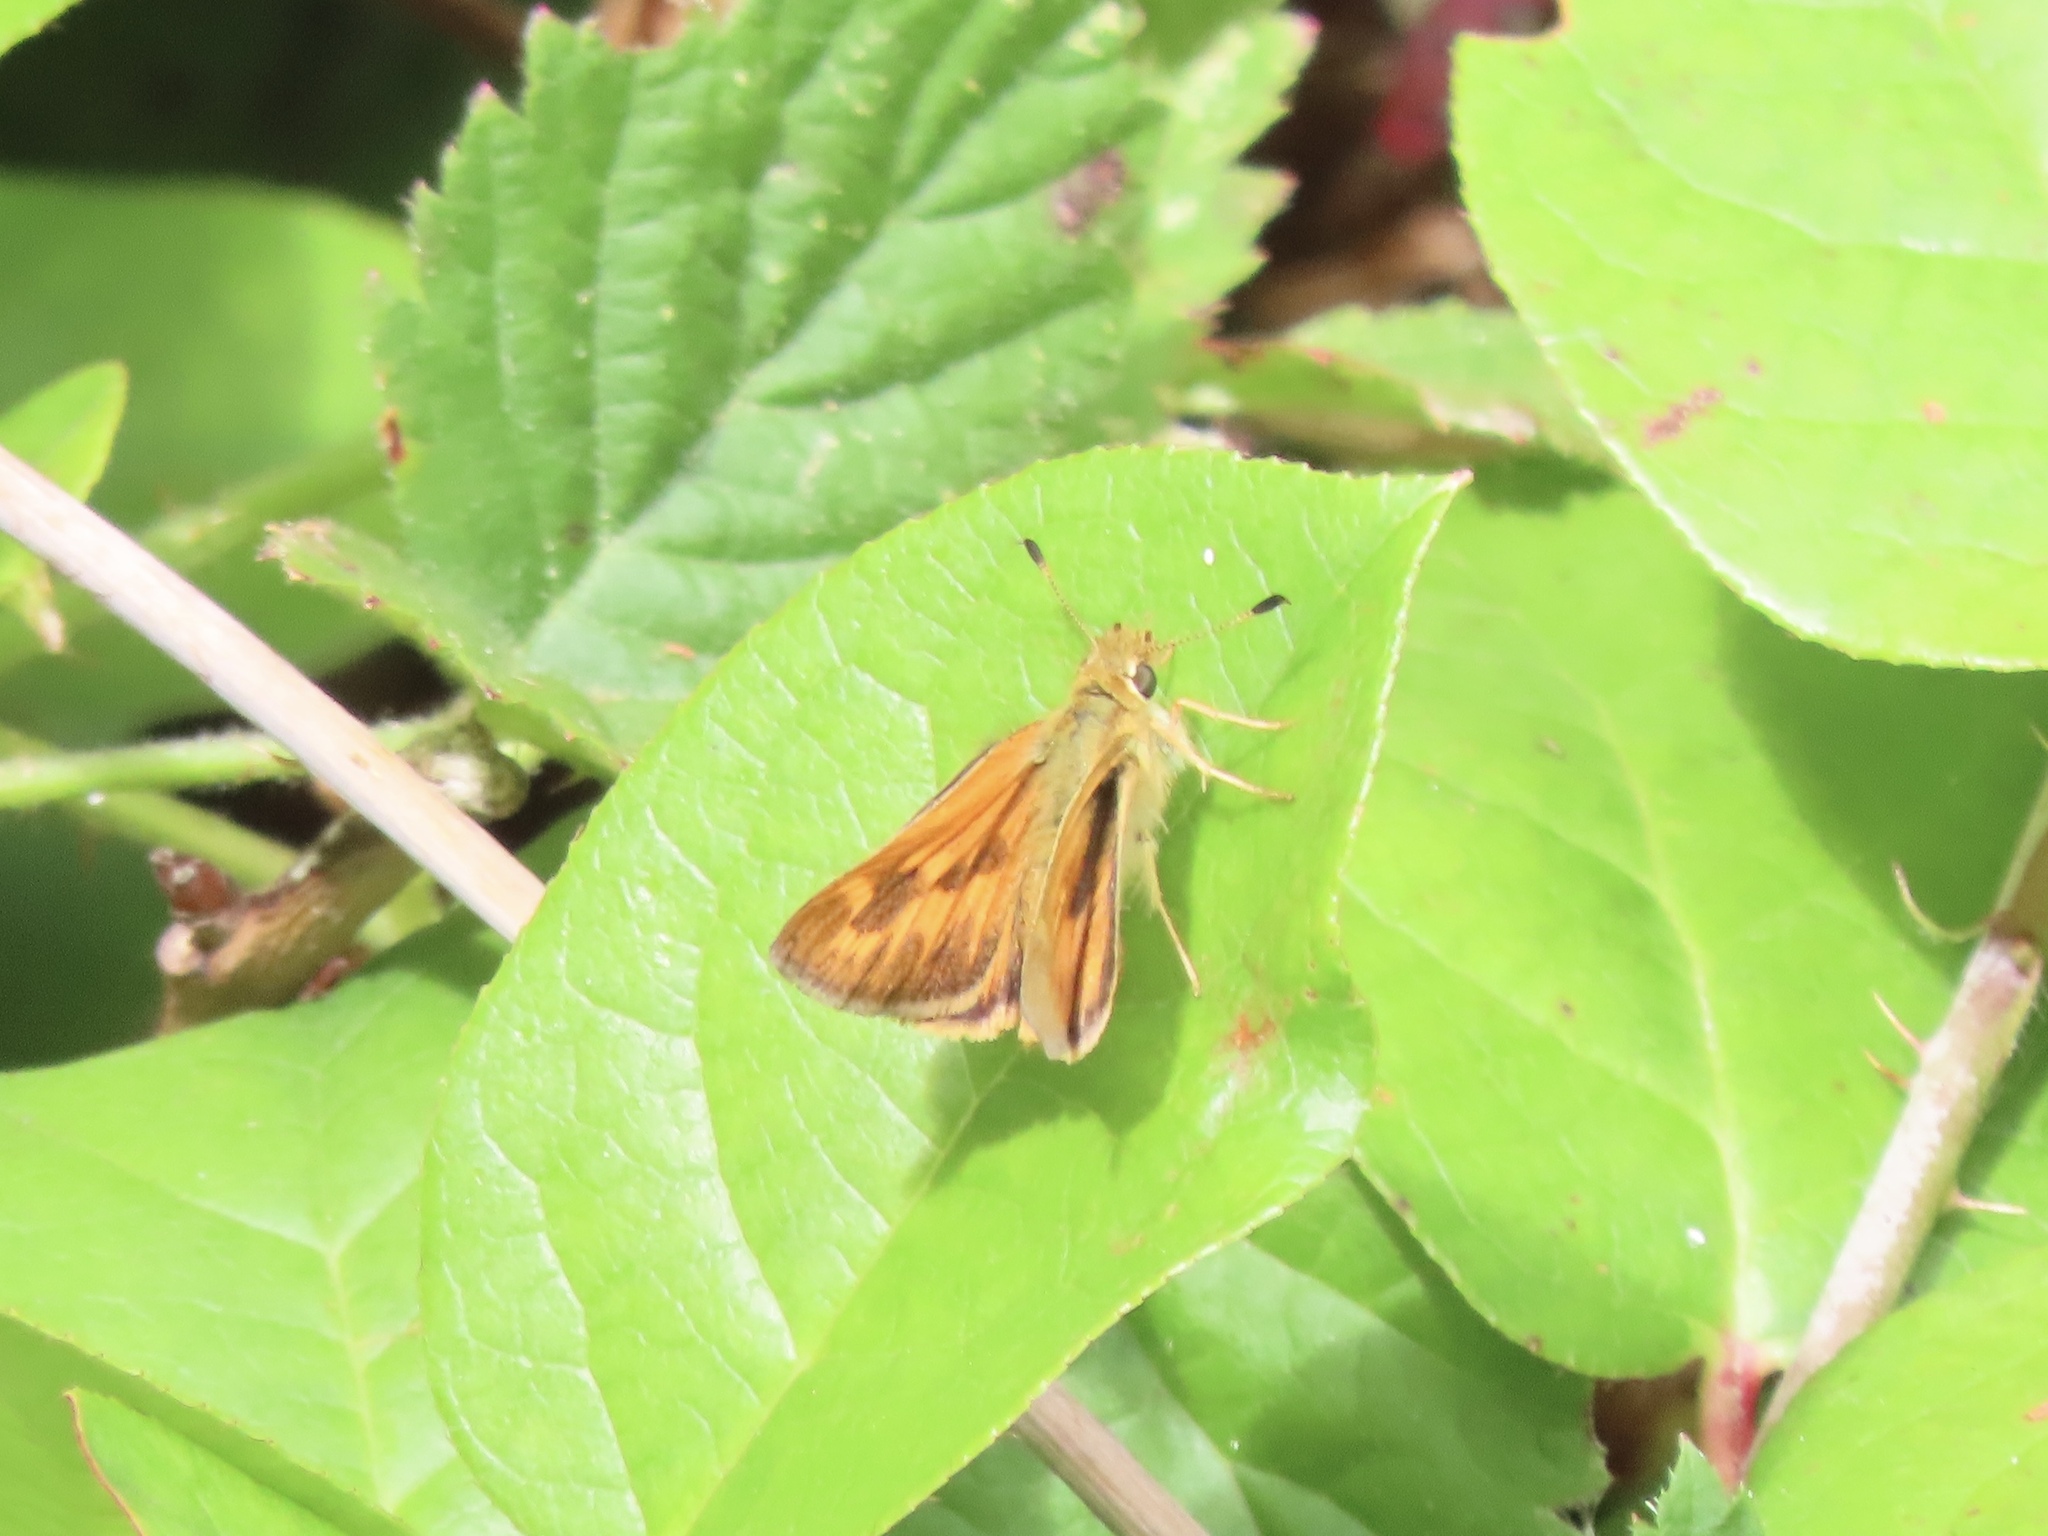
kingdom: Animalia
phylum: Arthropoda
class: Insecta
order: Lepidoptera
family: Hesperiidae
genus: Ochlodes
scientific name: Ochlodes sylvanoides
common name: Woodland skipper
